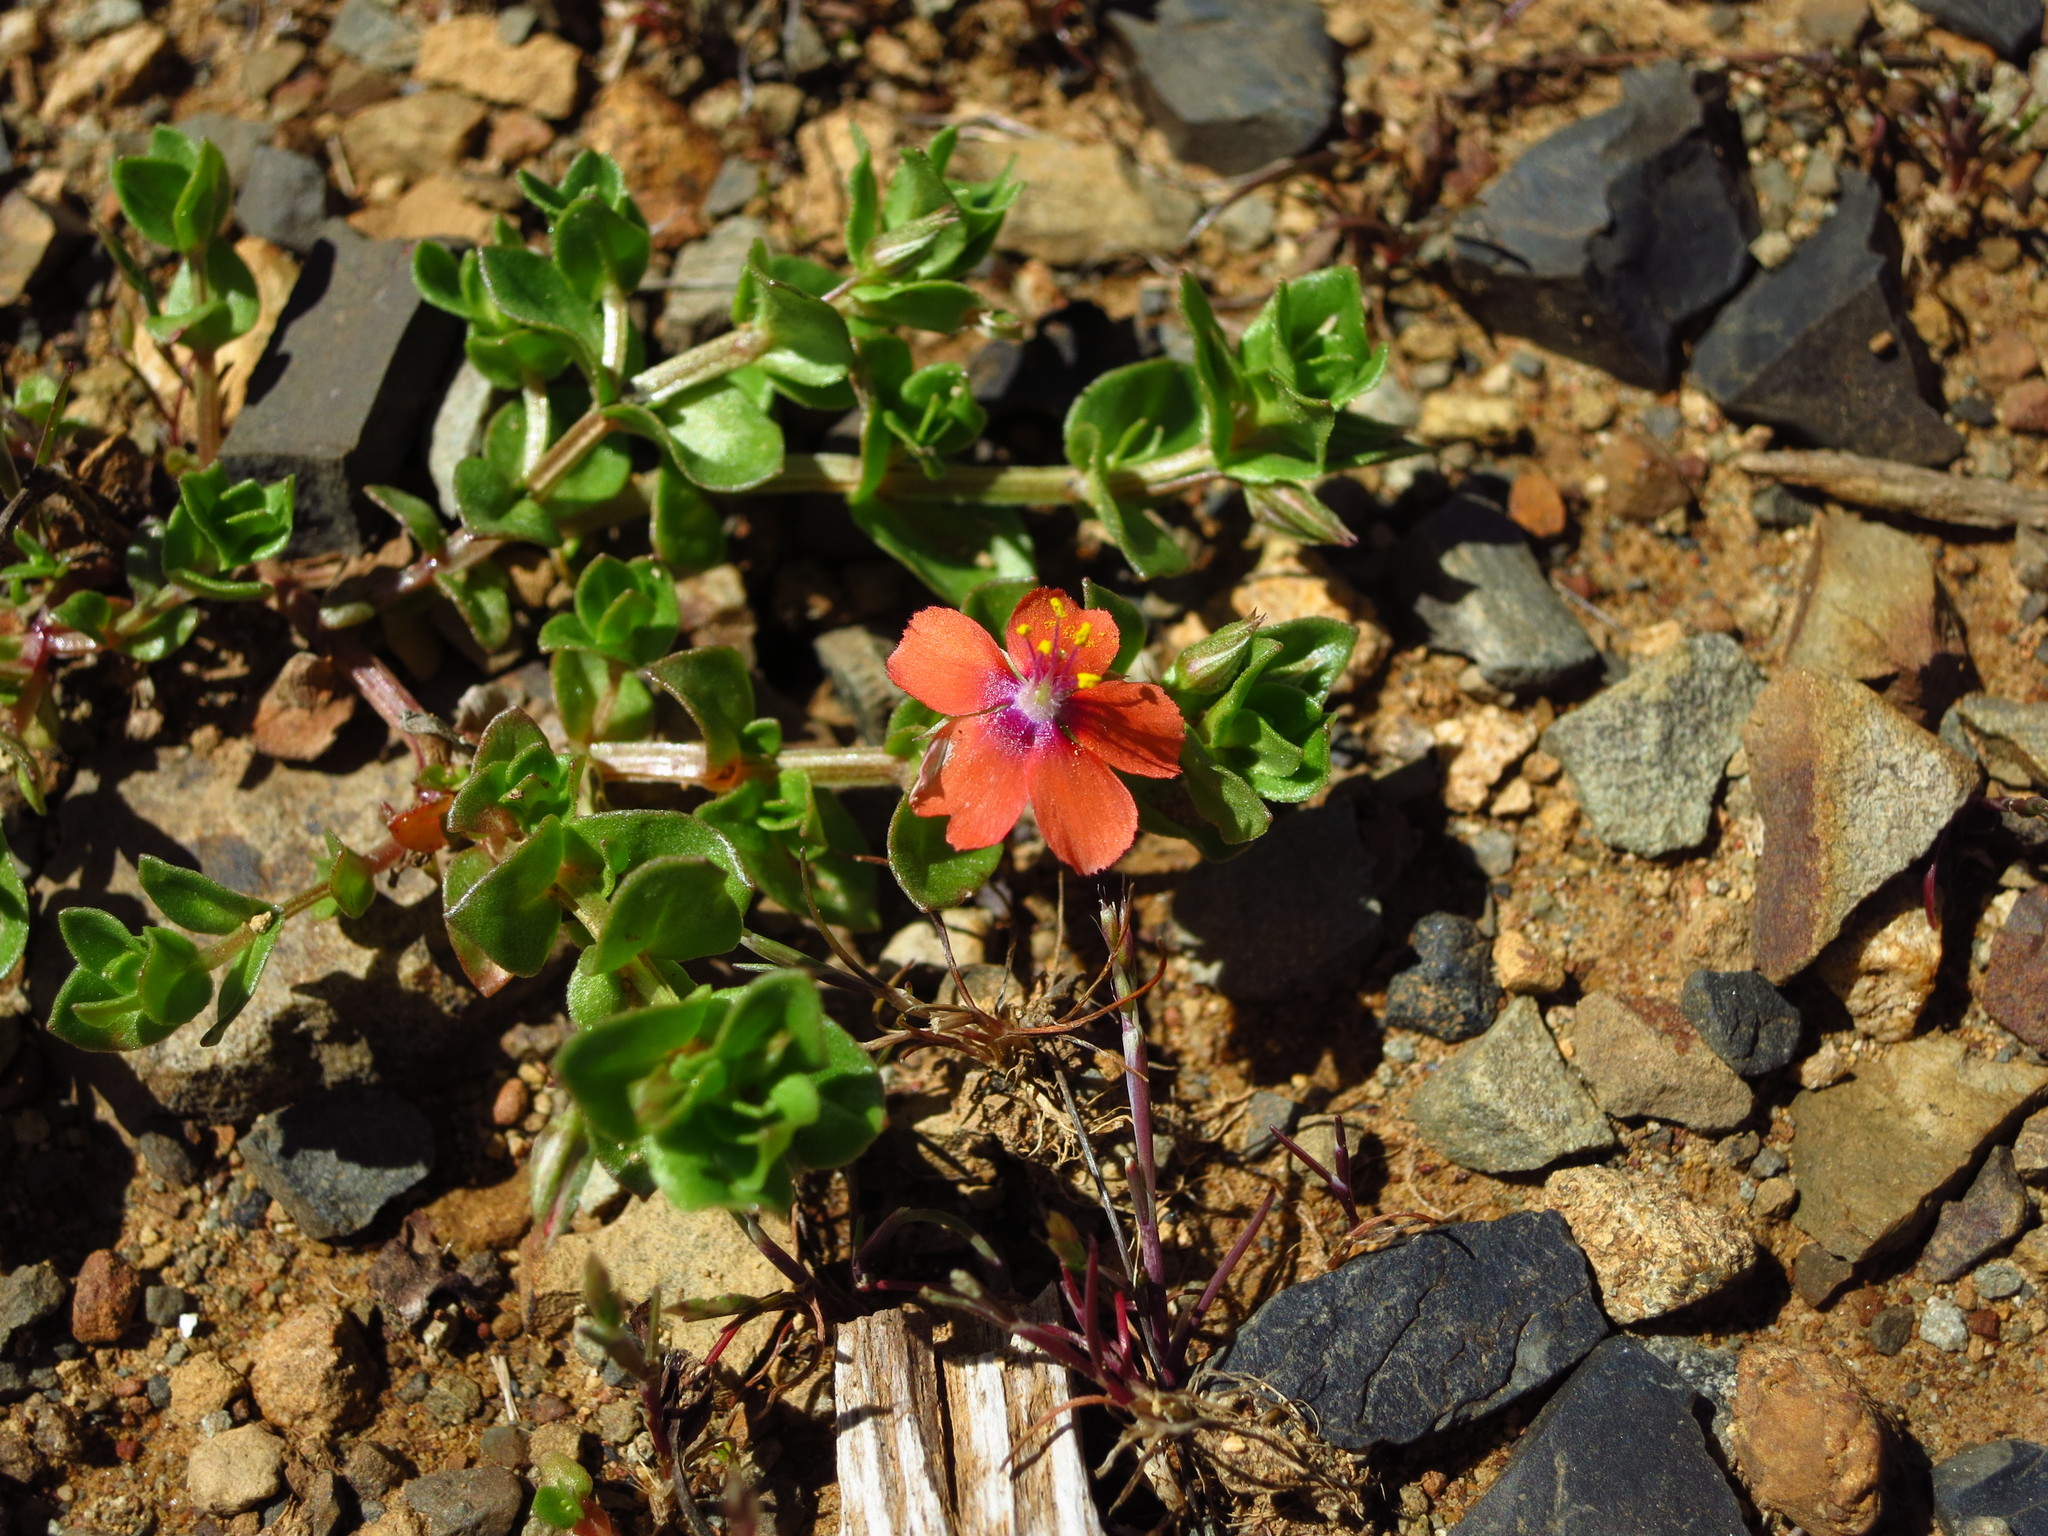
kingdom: Plantae
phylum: Tracheophyta
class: Magnoliopsida
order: Ericales
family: Primulaceae
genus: Lysimachia
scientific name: Lysimachia arvensis
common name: Scarlet pimpernel
